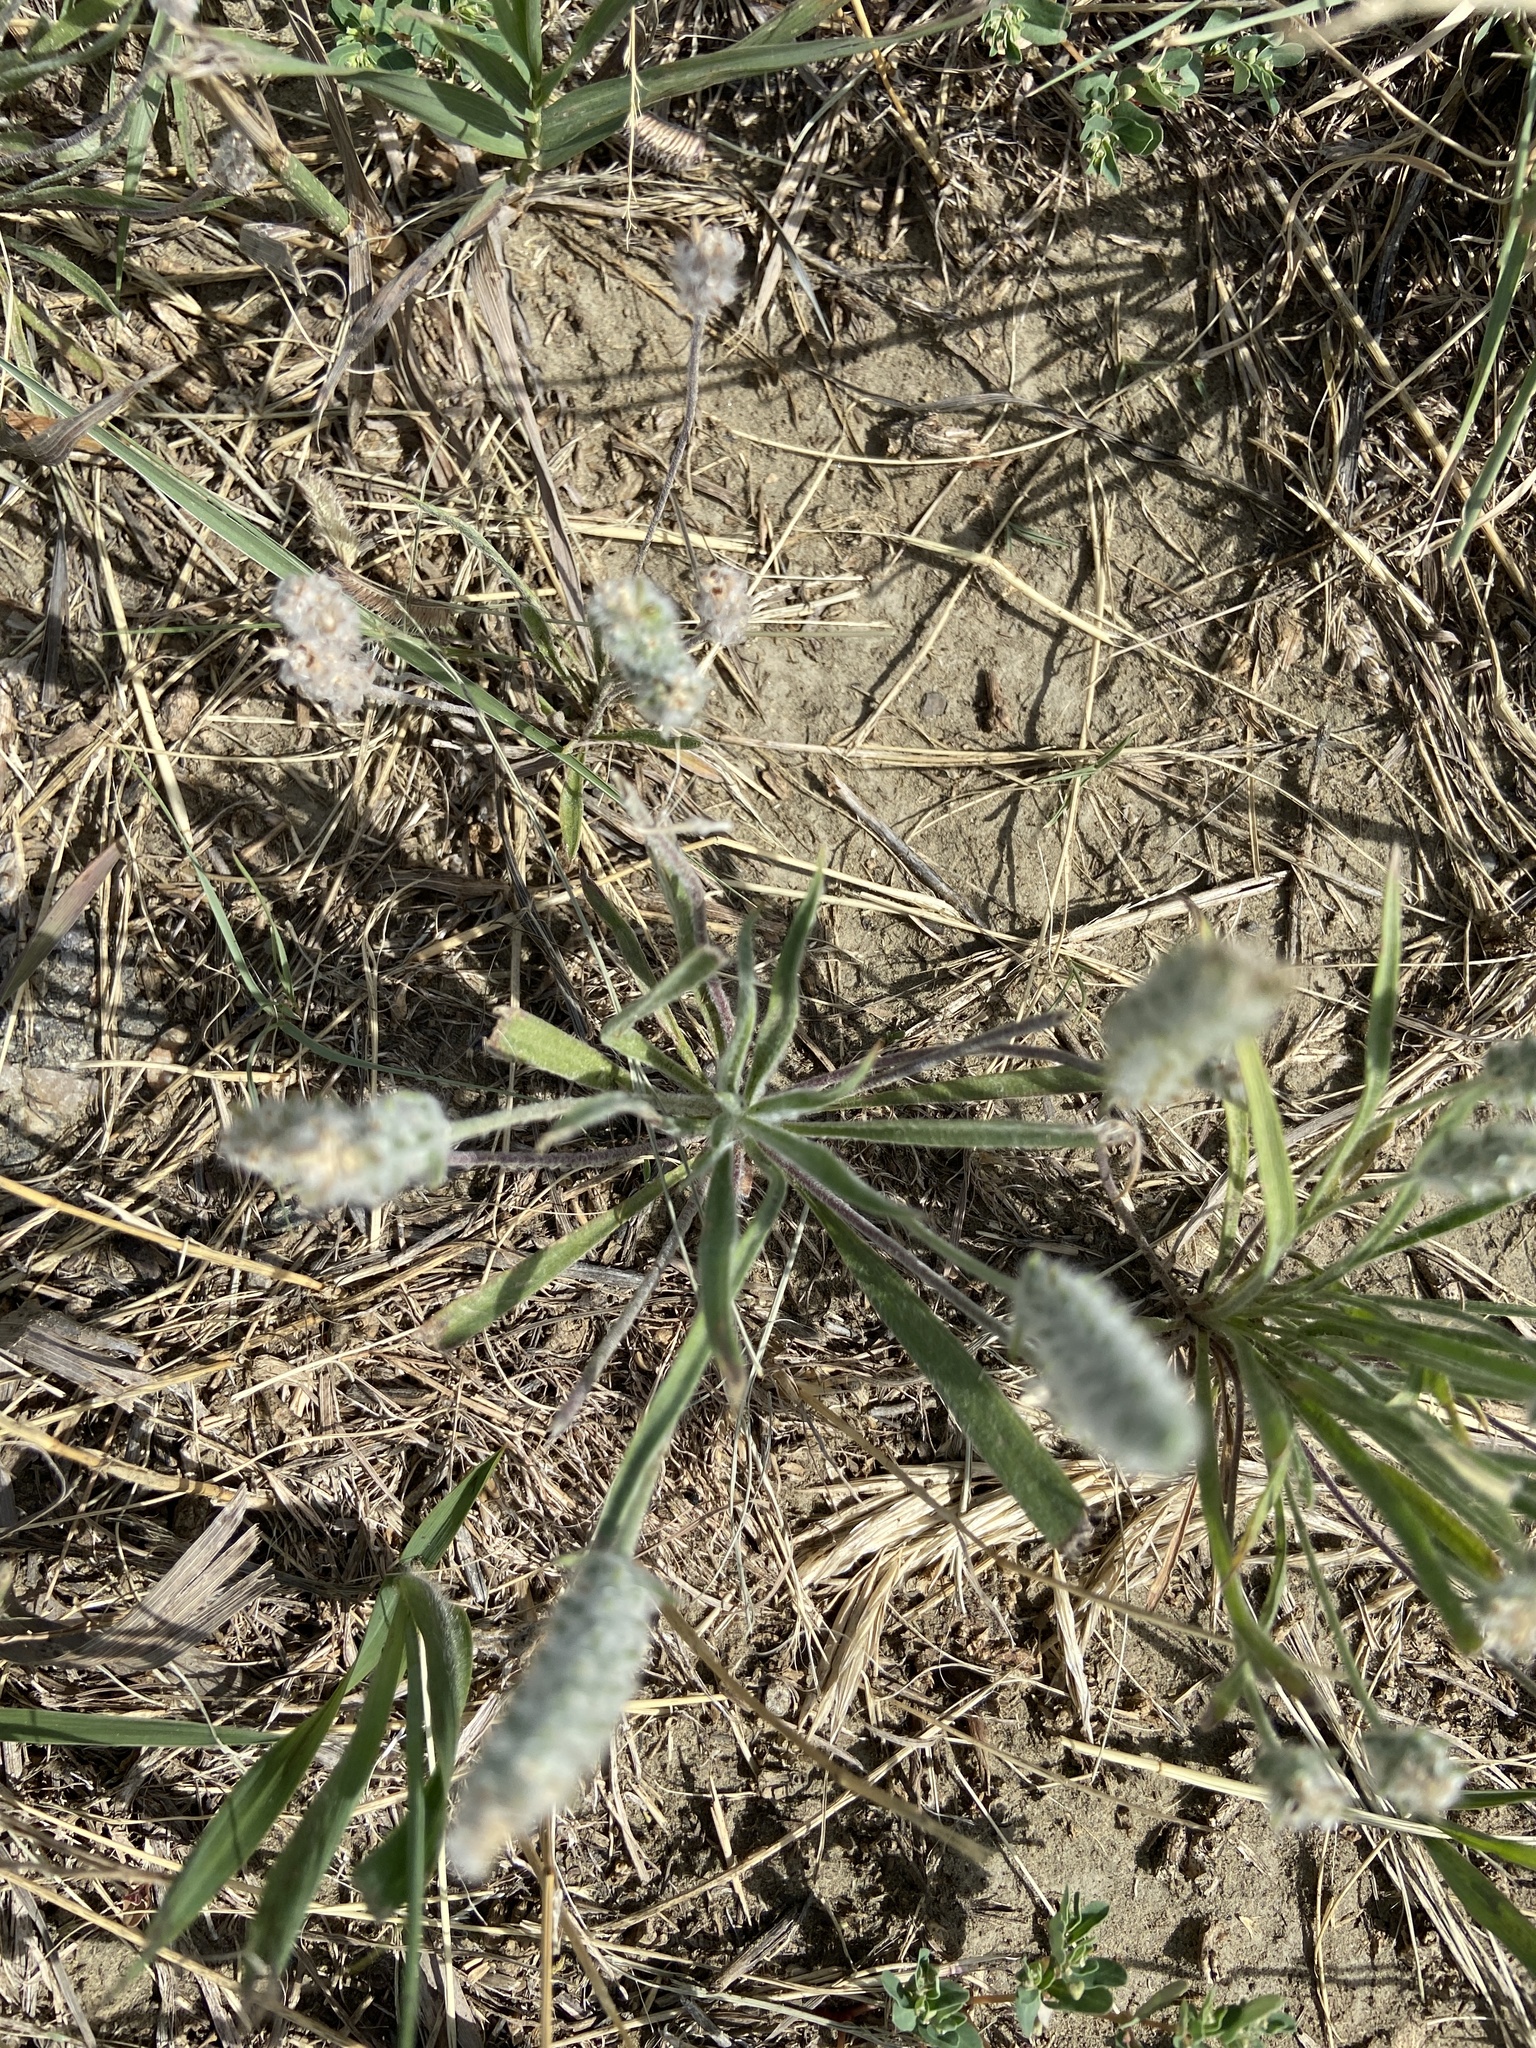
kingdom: Plantae
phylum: Tracheophyta
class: Magnoliopsida
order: Lamiales
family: Plantaginaceae
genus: Plantago
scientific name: Plantago patagonica
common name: Patagonia indian-wheat
